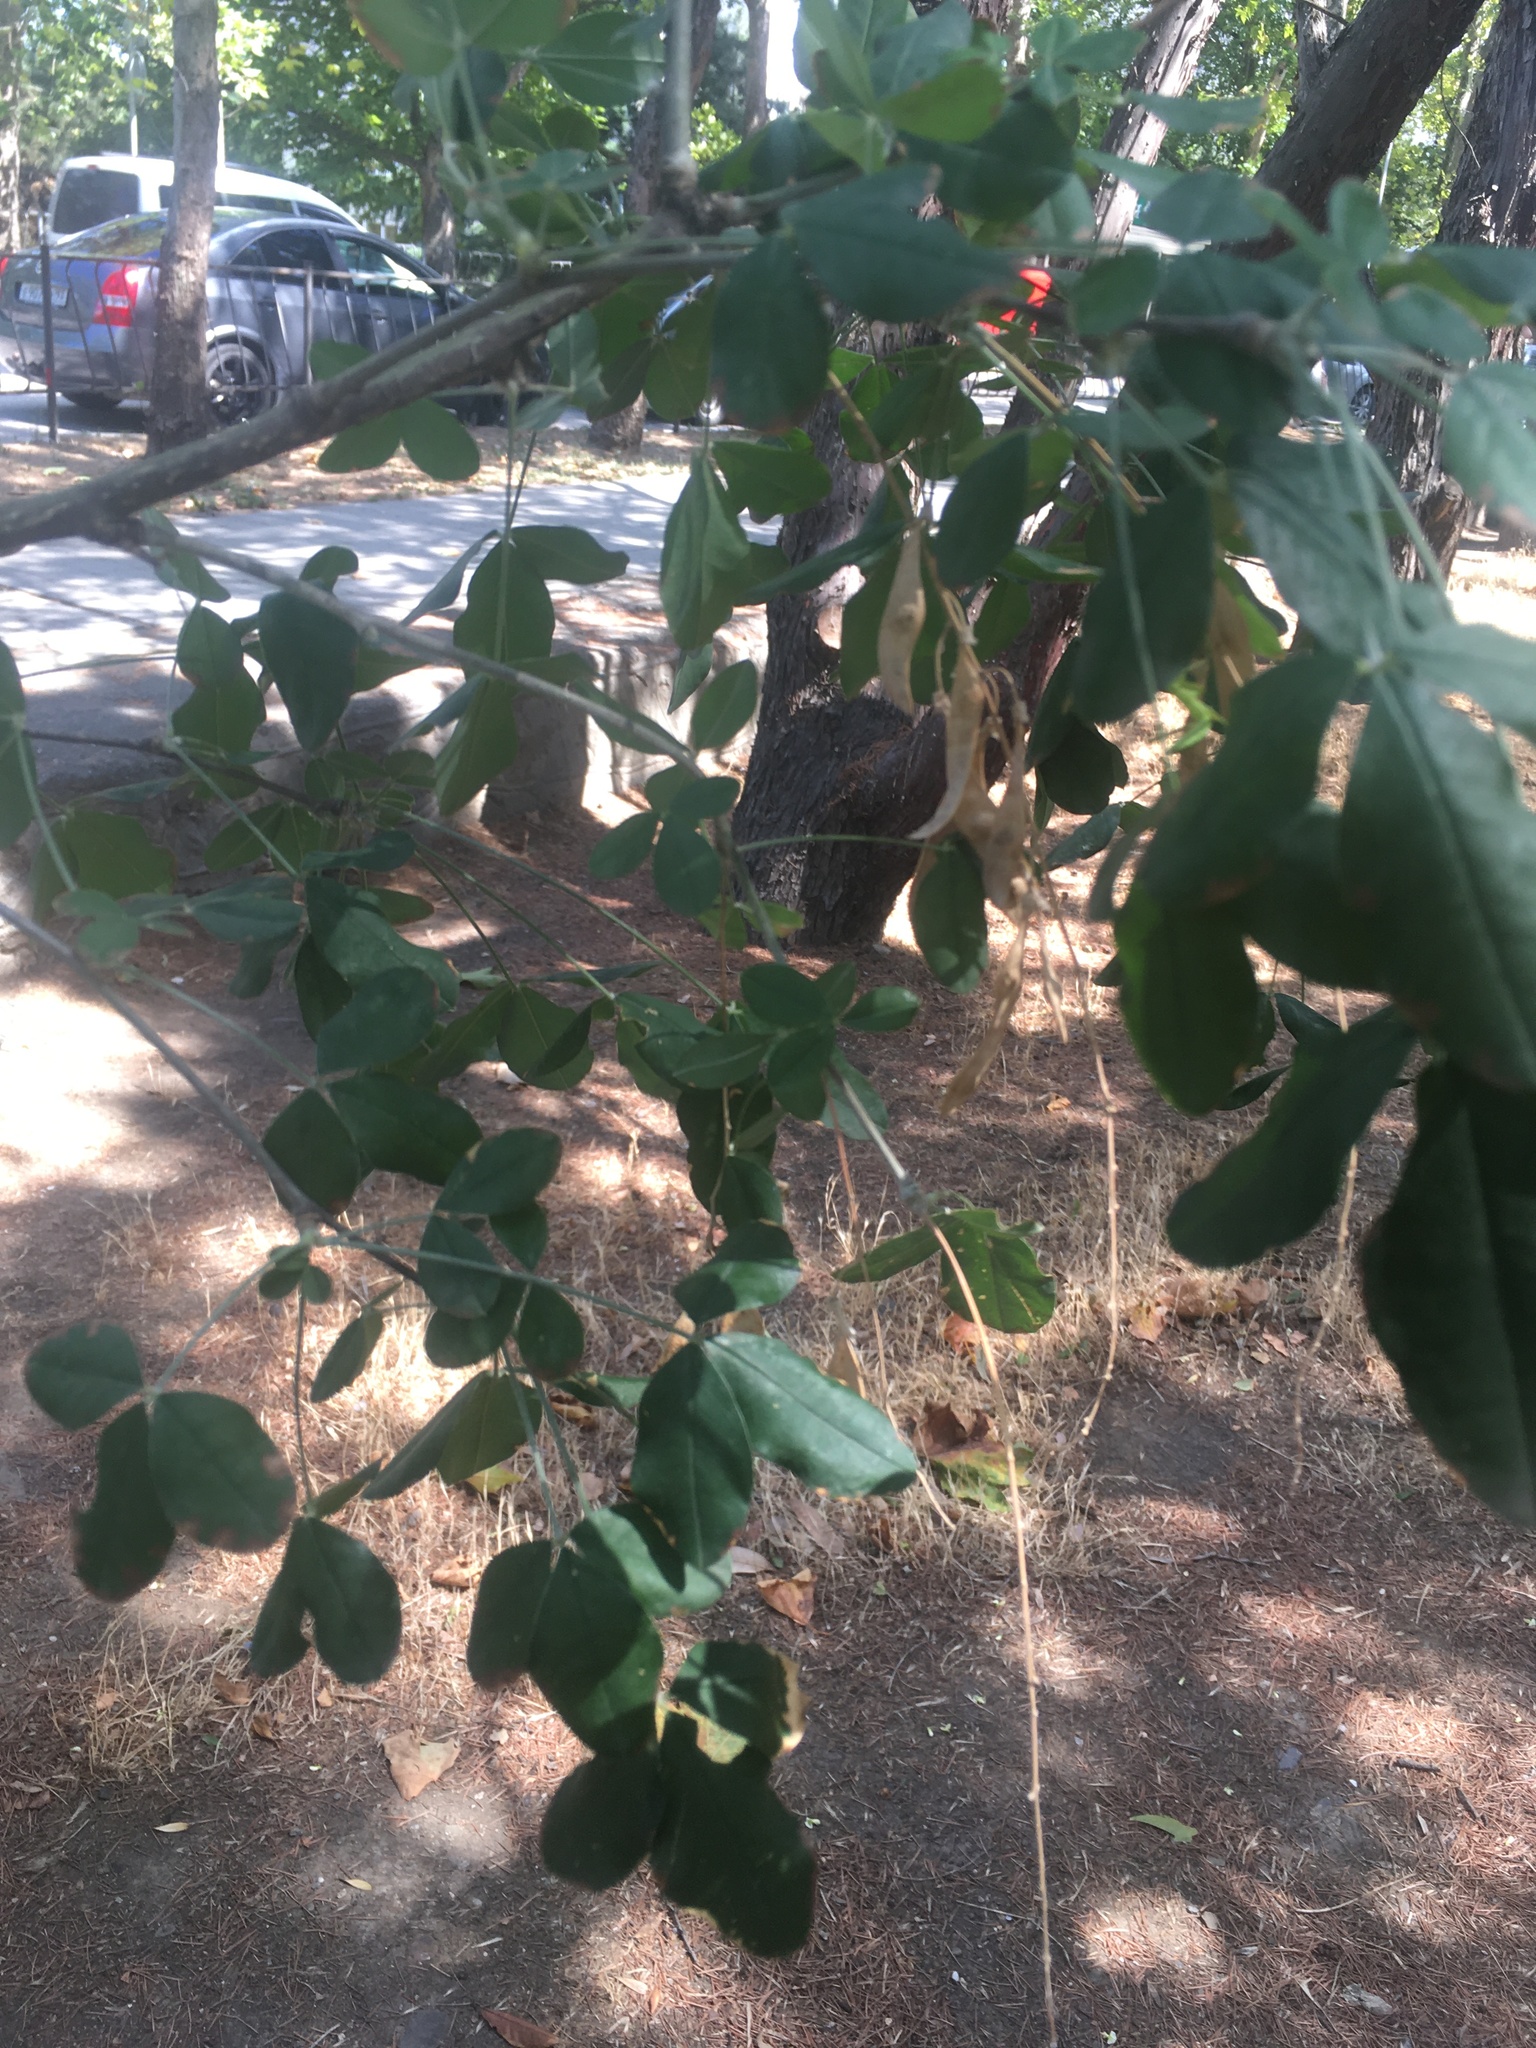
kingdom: Plantae
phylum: Tracheophyta
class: Magnoliopsida
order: Fabales
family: Fabaceae
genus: Laburnum
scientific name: Laburnum anagyroides
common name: Laburnum
